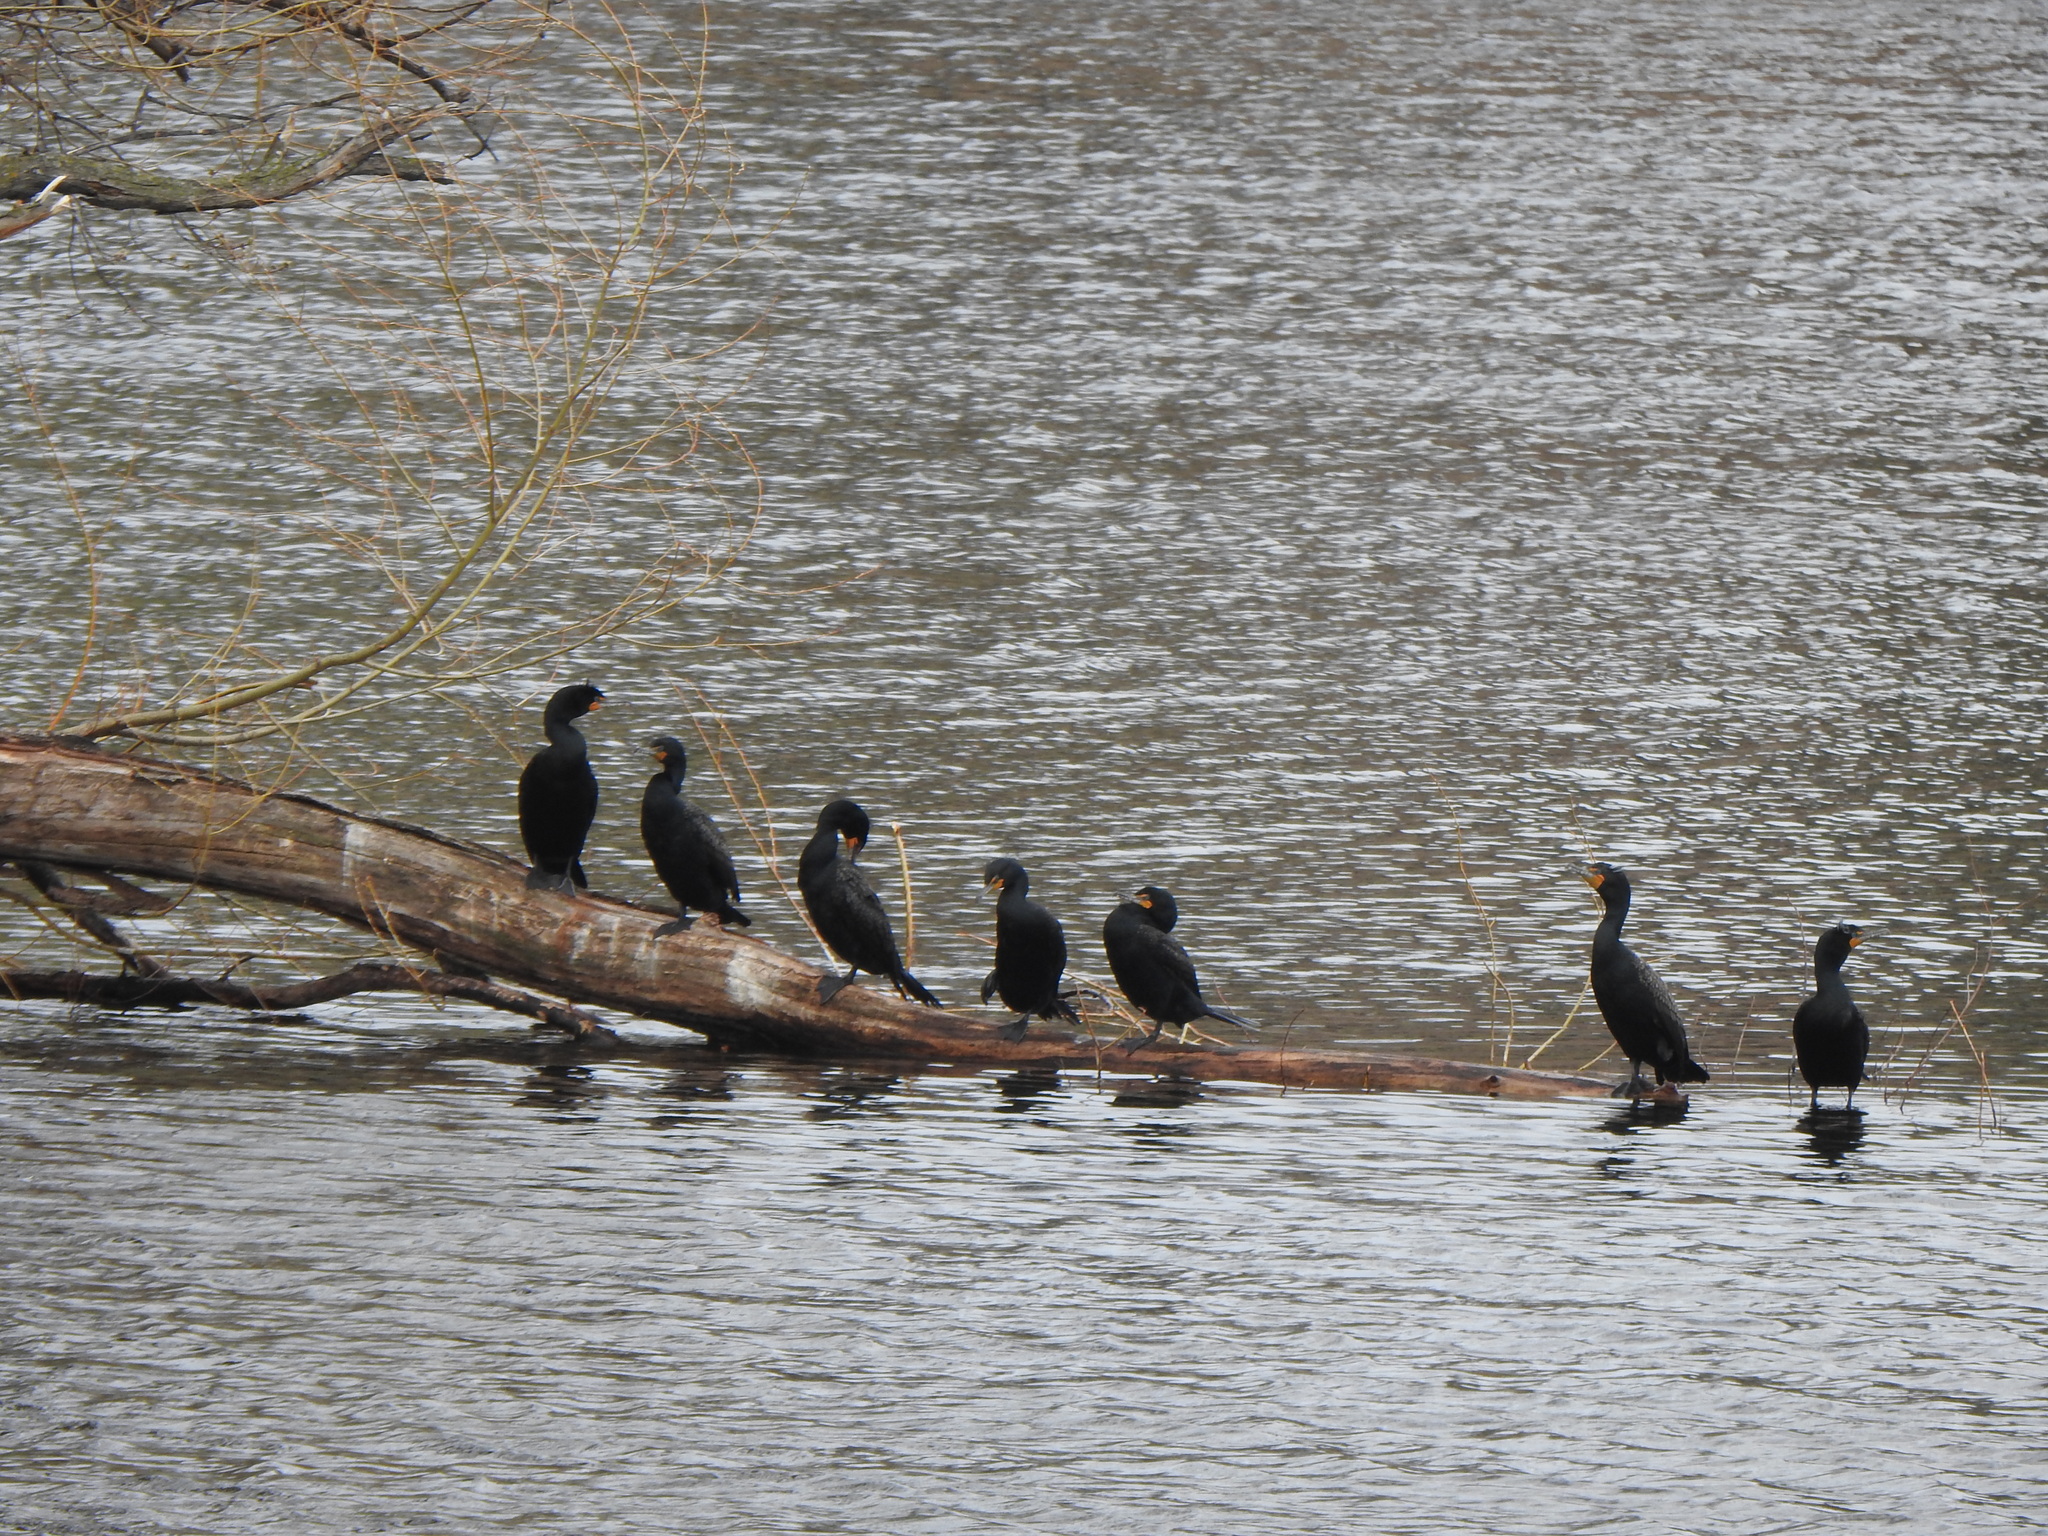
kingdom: Animalia
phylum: Chordata
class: Aves
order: Suliformes
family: Phalacrocoracidae
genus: Phalacrocorax
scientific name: Phalacrocorax auritus
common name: Double-crested cormorant
